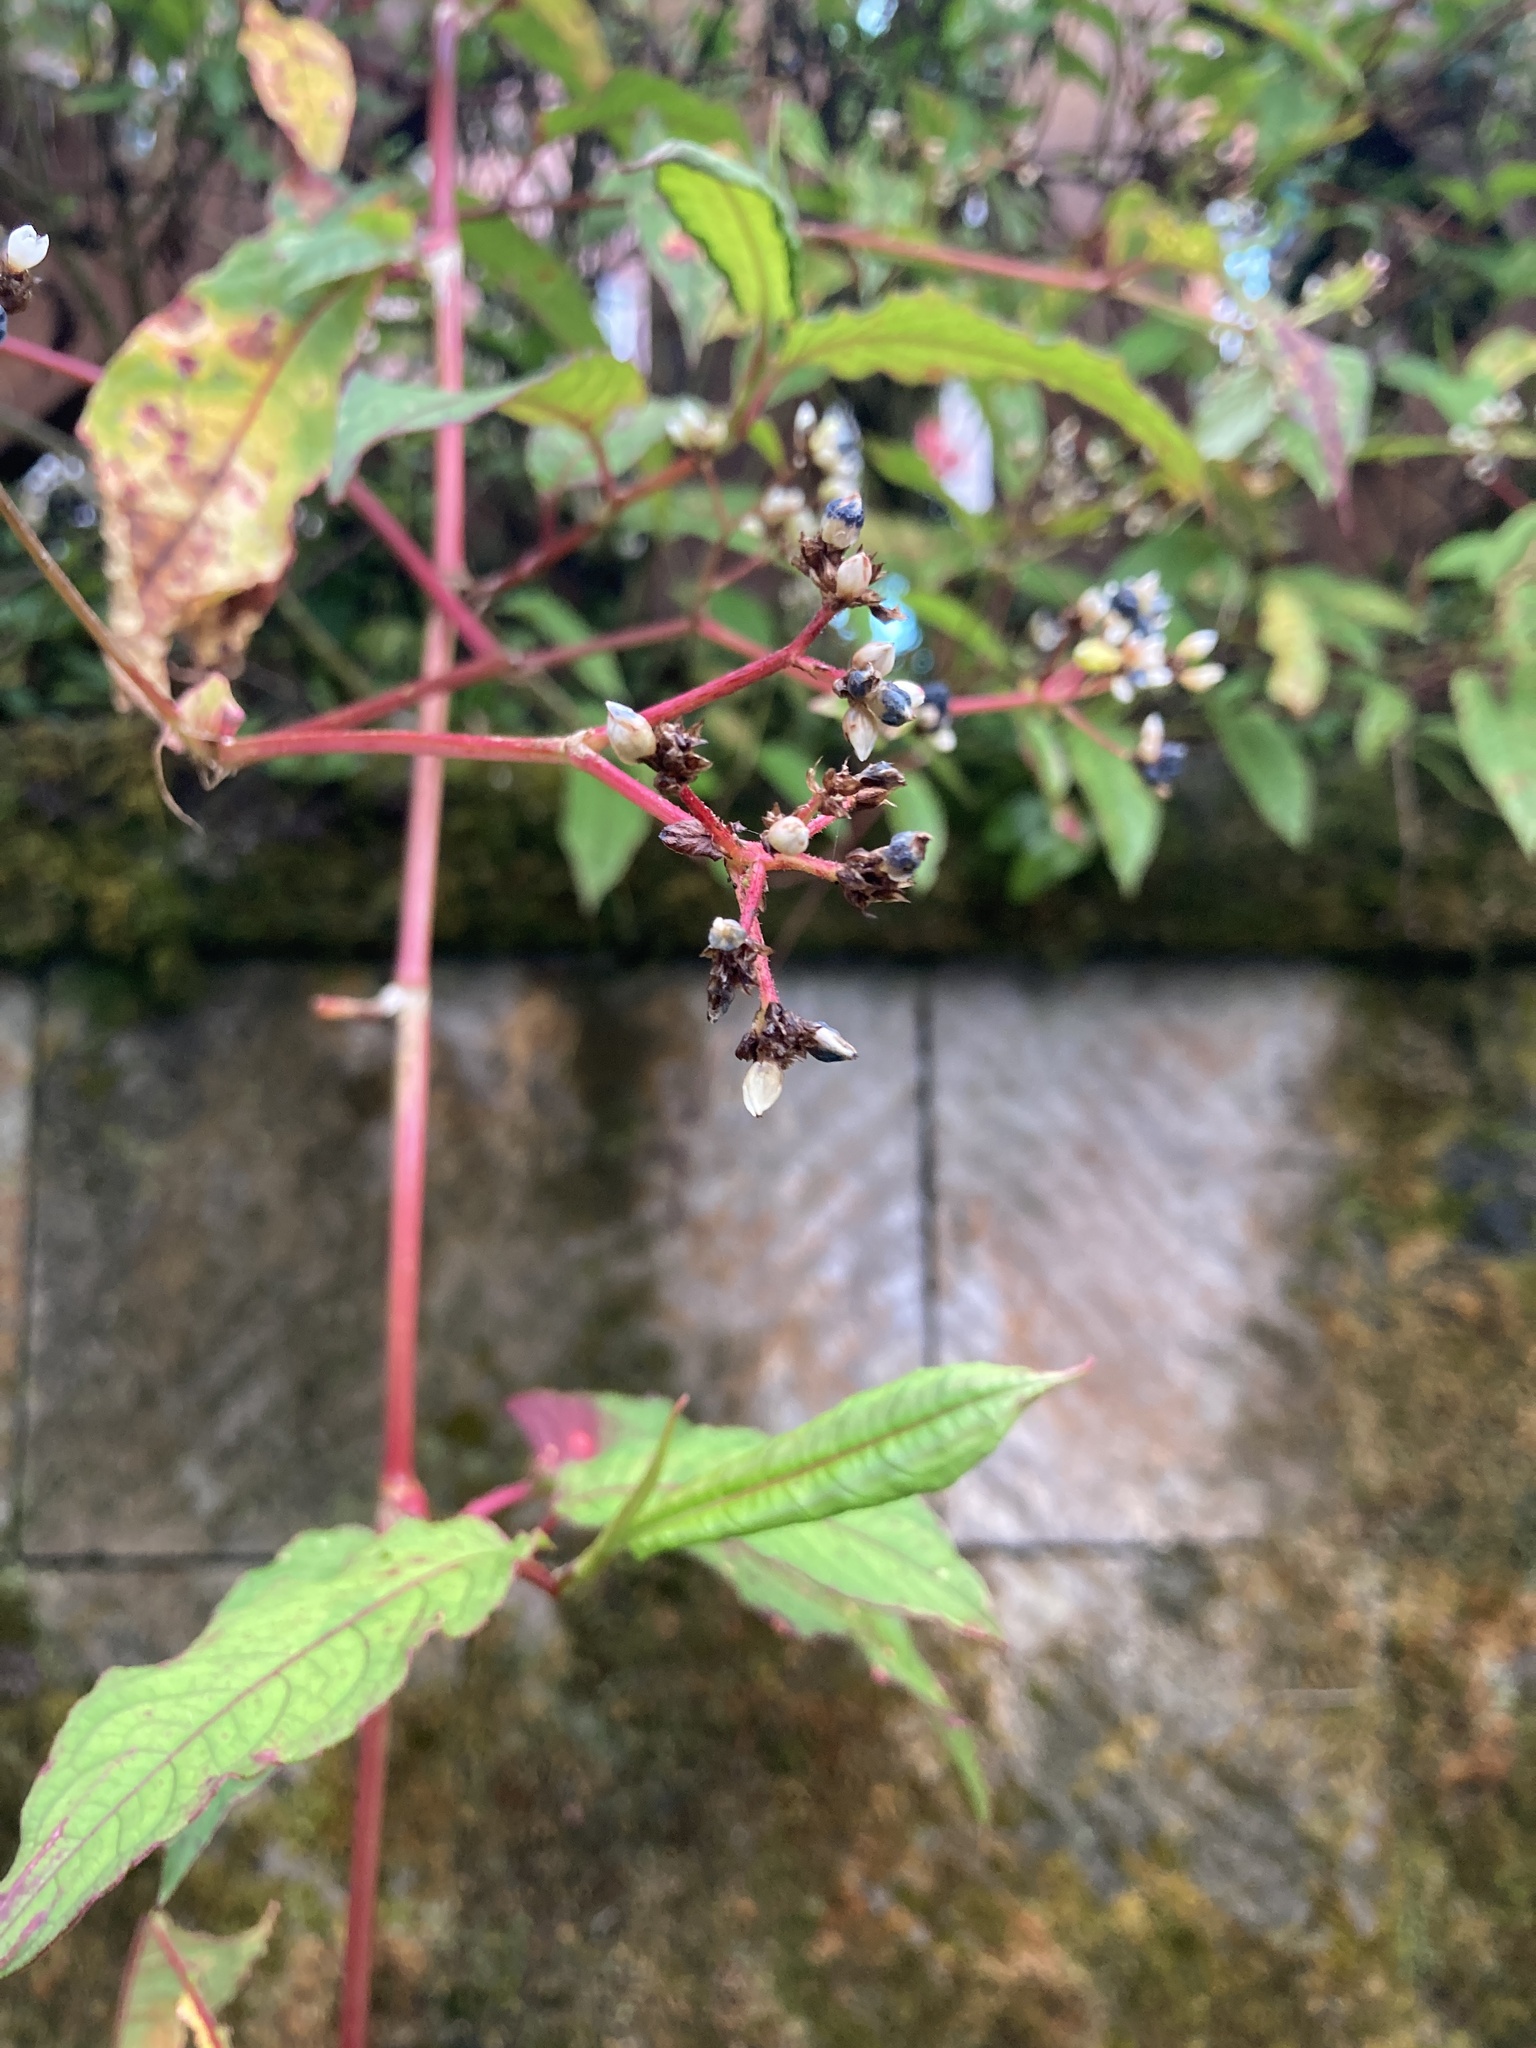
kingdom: Plantae
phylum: Tracheophyta
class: Magnoliopsida
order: Caryophyllales
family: Polygonaceae
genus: Persicaria
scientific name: Persicaria chinensis
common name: Chinese knotweed
